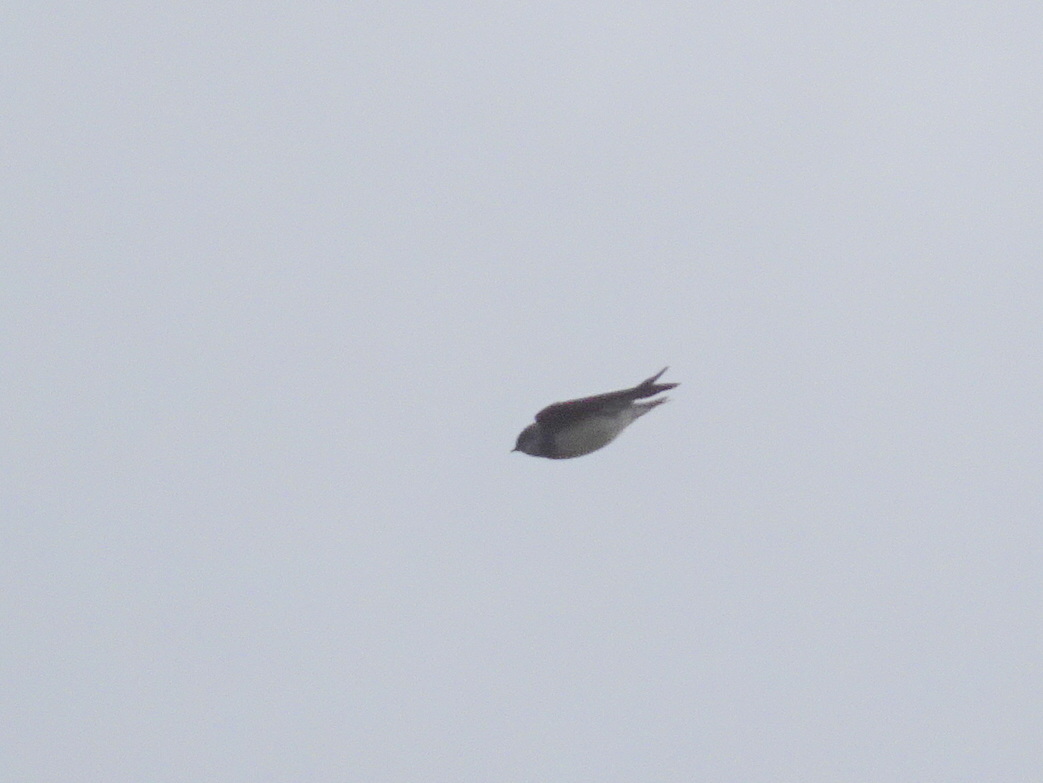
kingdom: Animalia
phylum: Chordata
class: Aves
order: Passeriformes
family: Hirundinidae
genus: Riparia
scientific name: Riparia riparia
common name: Sand martin
